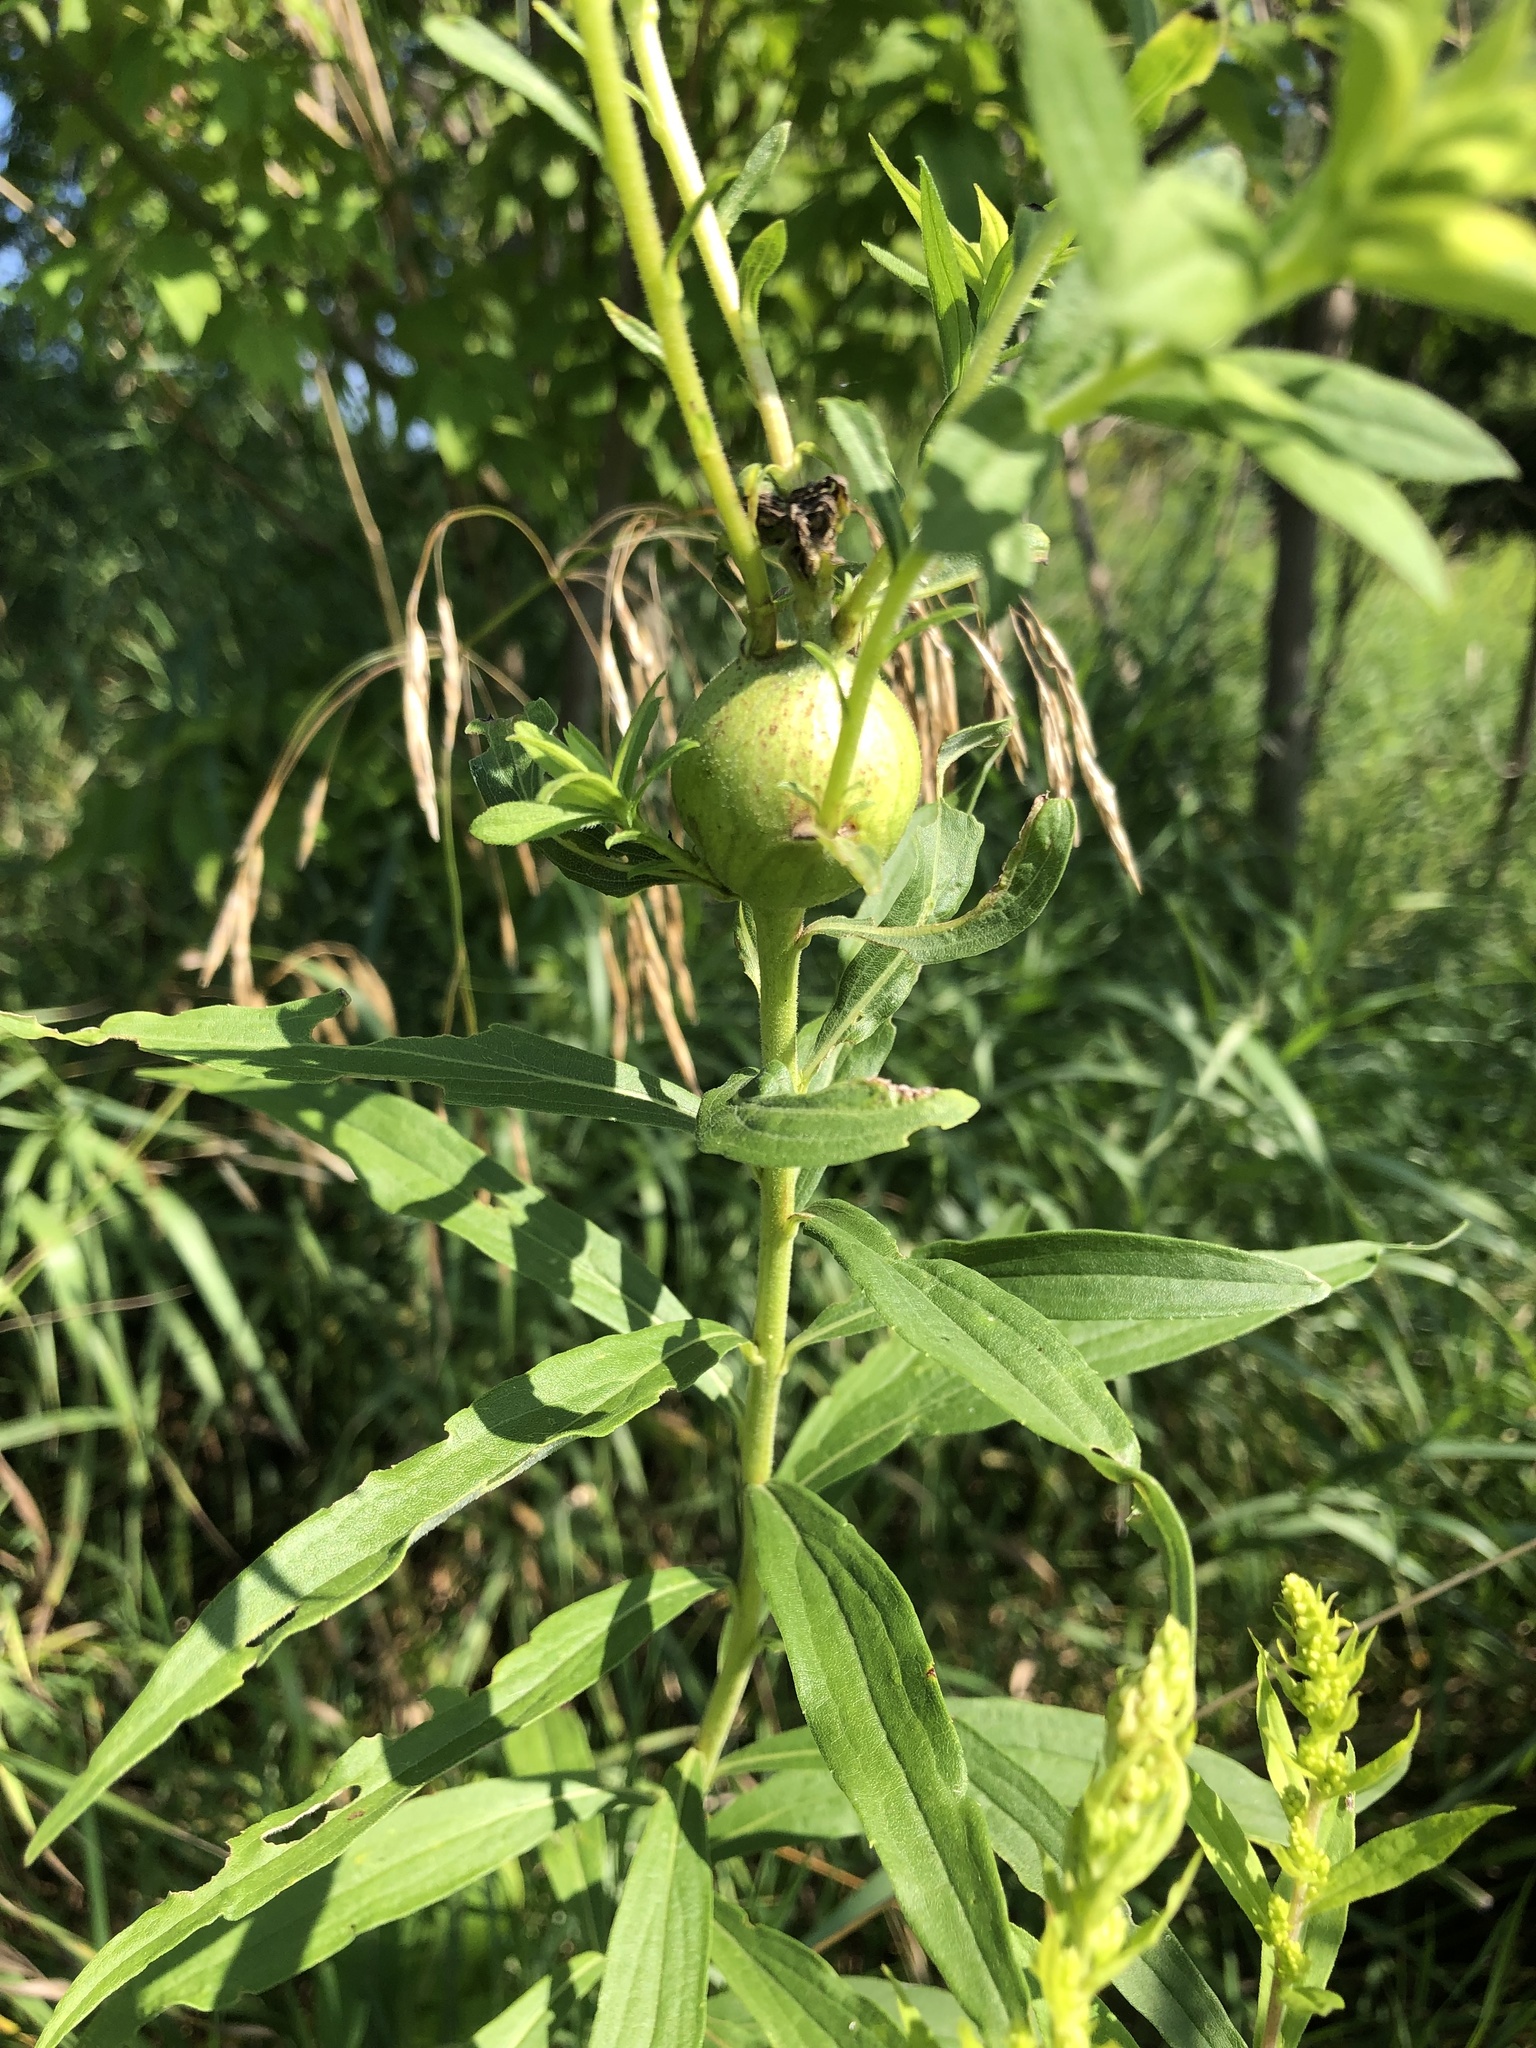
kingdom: Animalia
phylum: Arthropoda
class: Insecta
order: Diptera
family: Tephritidae
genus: Eurosta
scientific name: Eurosta solidaginis
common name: Goldenrod gall fly
